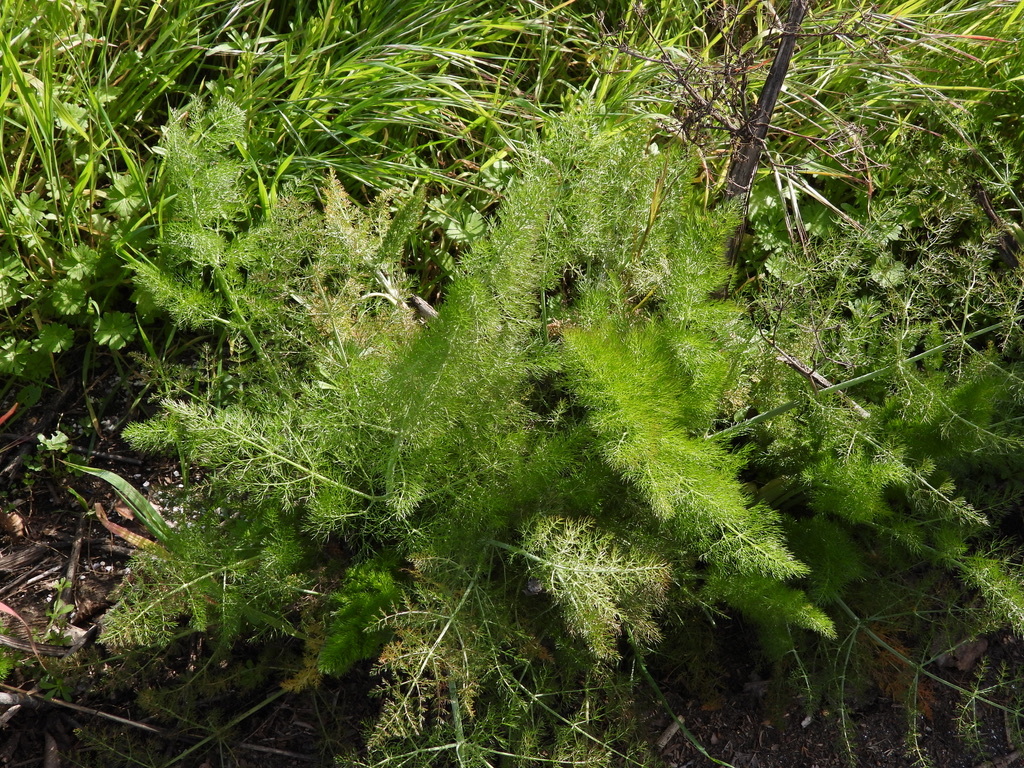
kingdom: Plantae
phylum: Tracheophyta
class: Magnoliopsida
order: Apiales
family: Apiaceae
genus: Foeniculum
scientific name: Foeniculum vulgare
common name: Fennel
